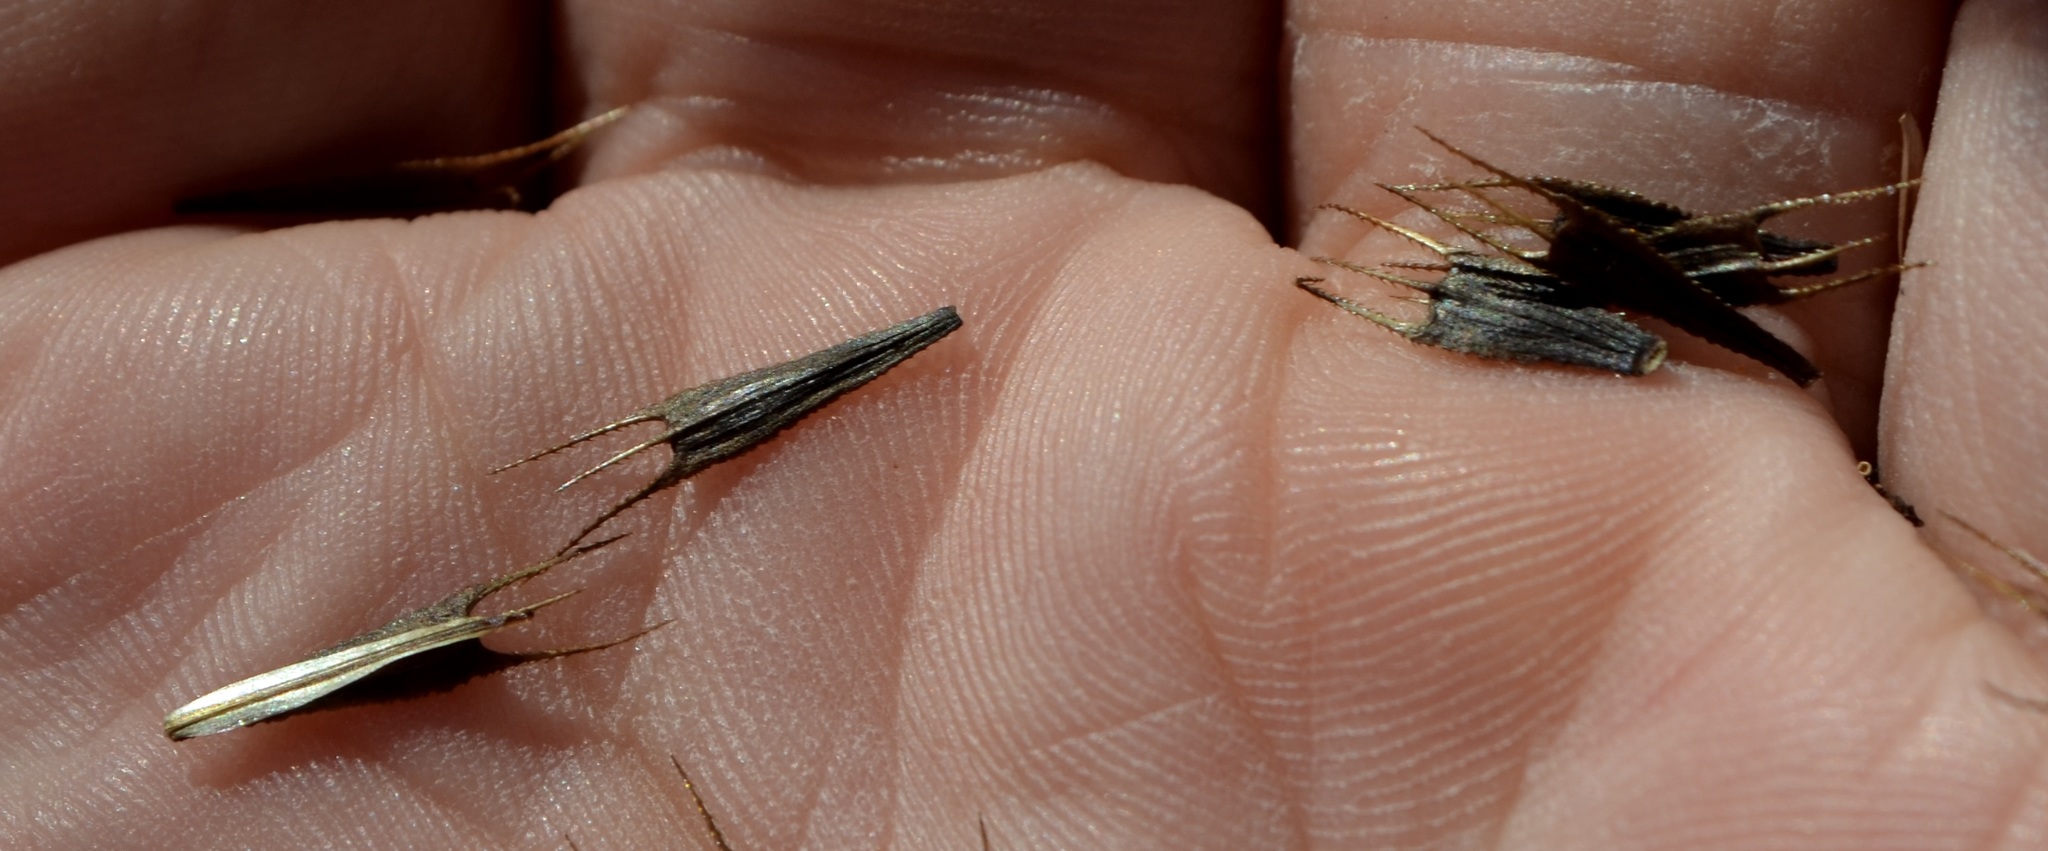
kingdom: Plantae
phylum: Tracheophyta
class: Magnoliopsida
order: Asterales
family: Asteraceae
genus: Bidens
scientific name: Bidens tripartita
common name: Trifid bur-marigold
